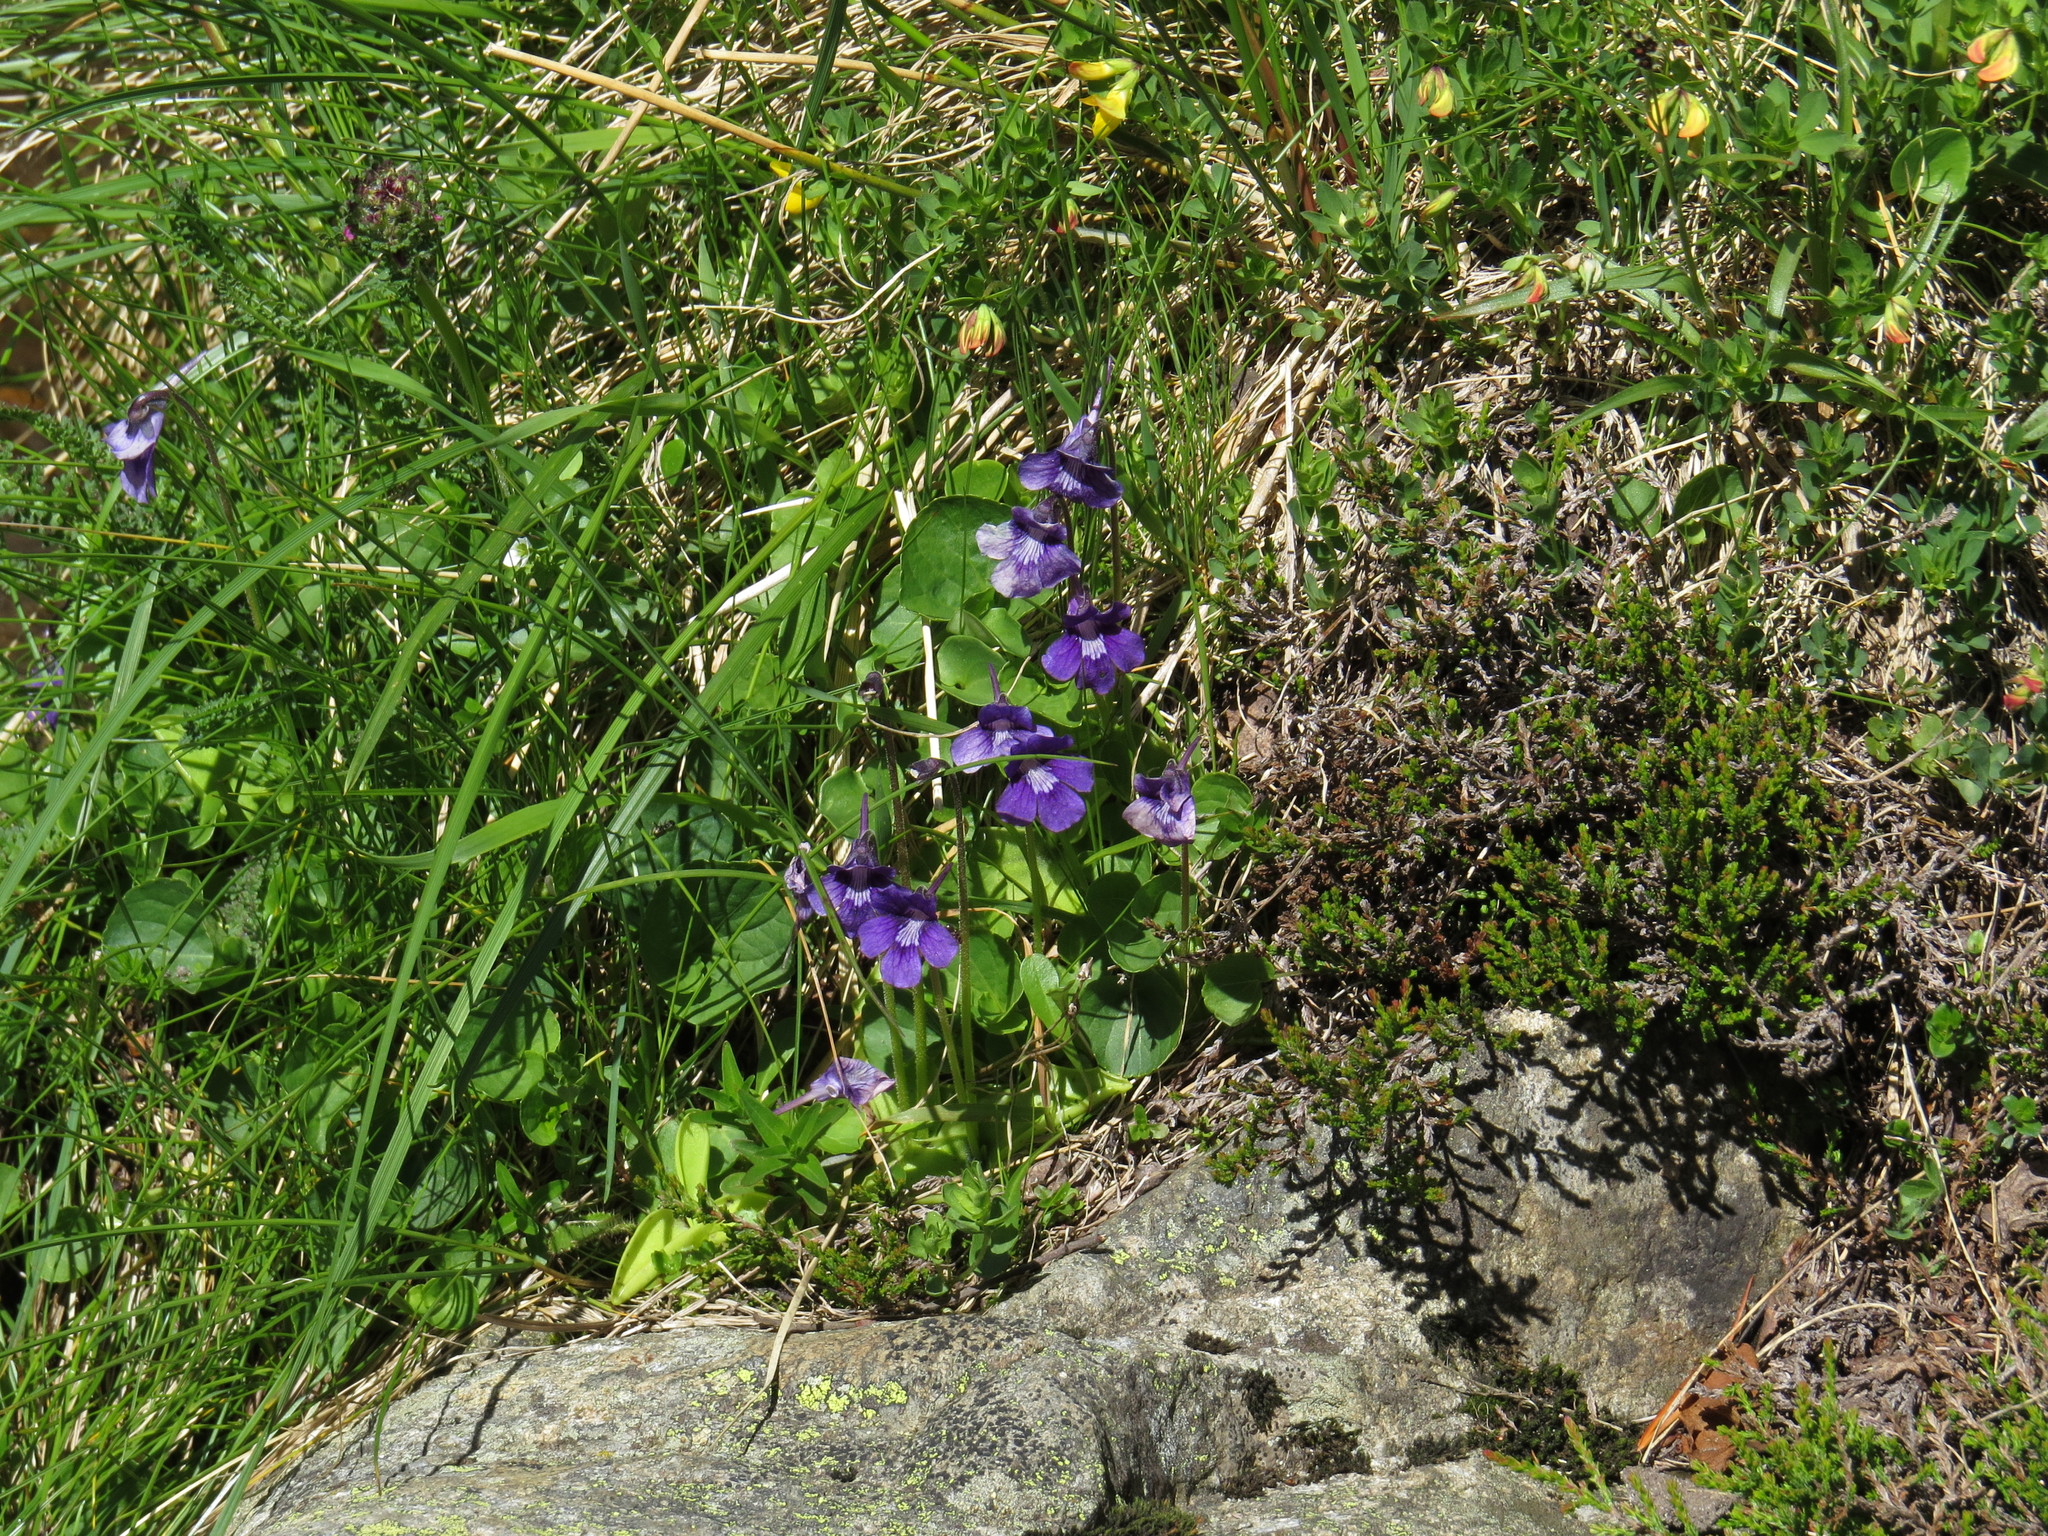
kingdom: Plantae
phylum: Tracheophyta
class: Magnoliopsida
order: Lamiales
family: Lentibulariaceae
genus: Pinguicula
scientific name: Pinguicula grandiflora
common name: Large-flowered butterwort
